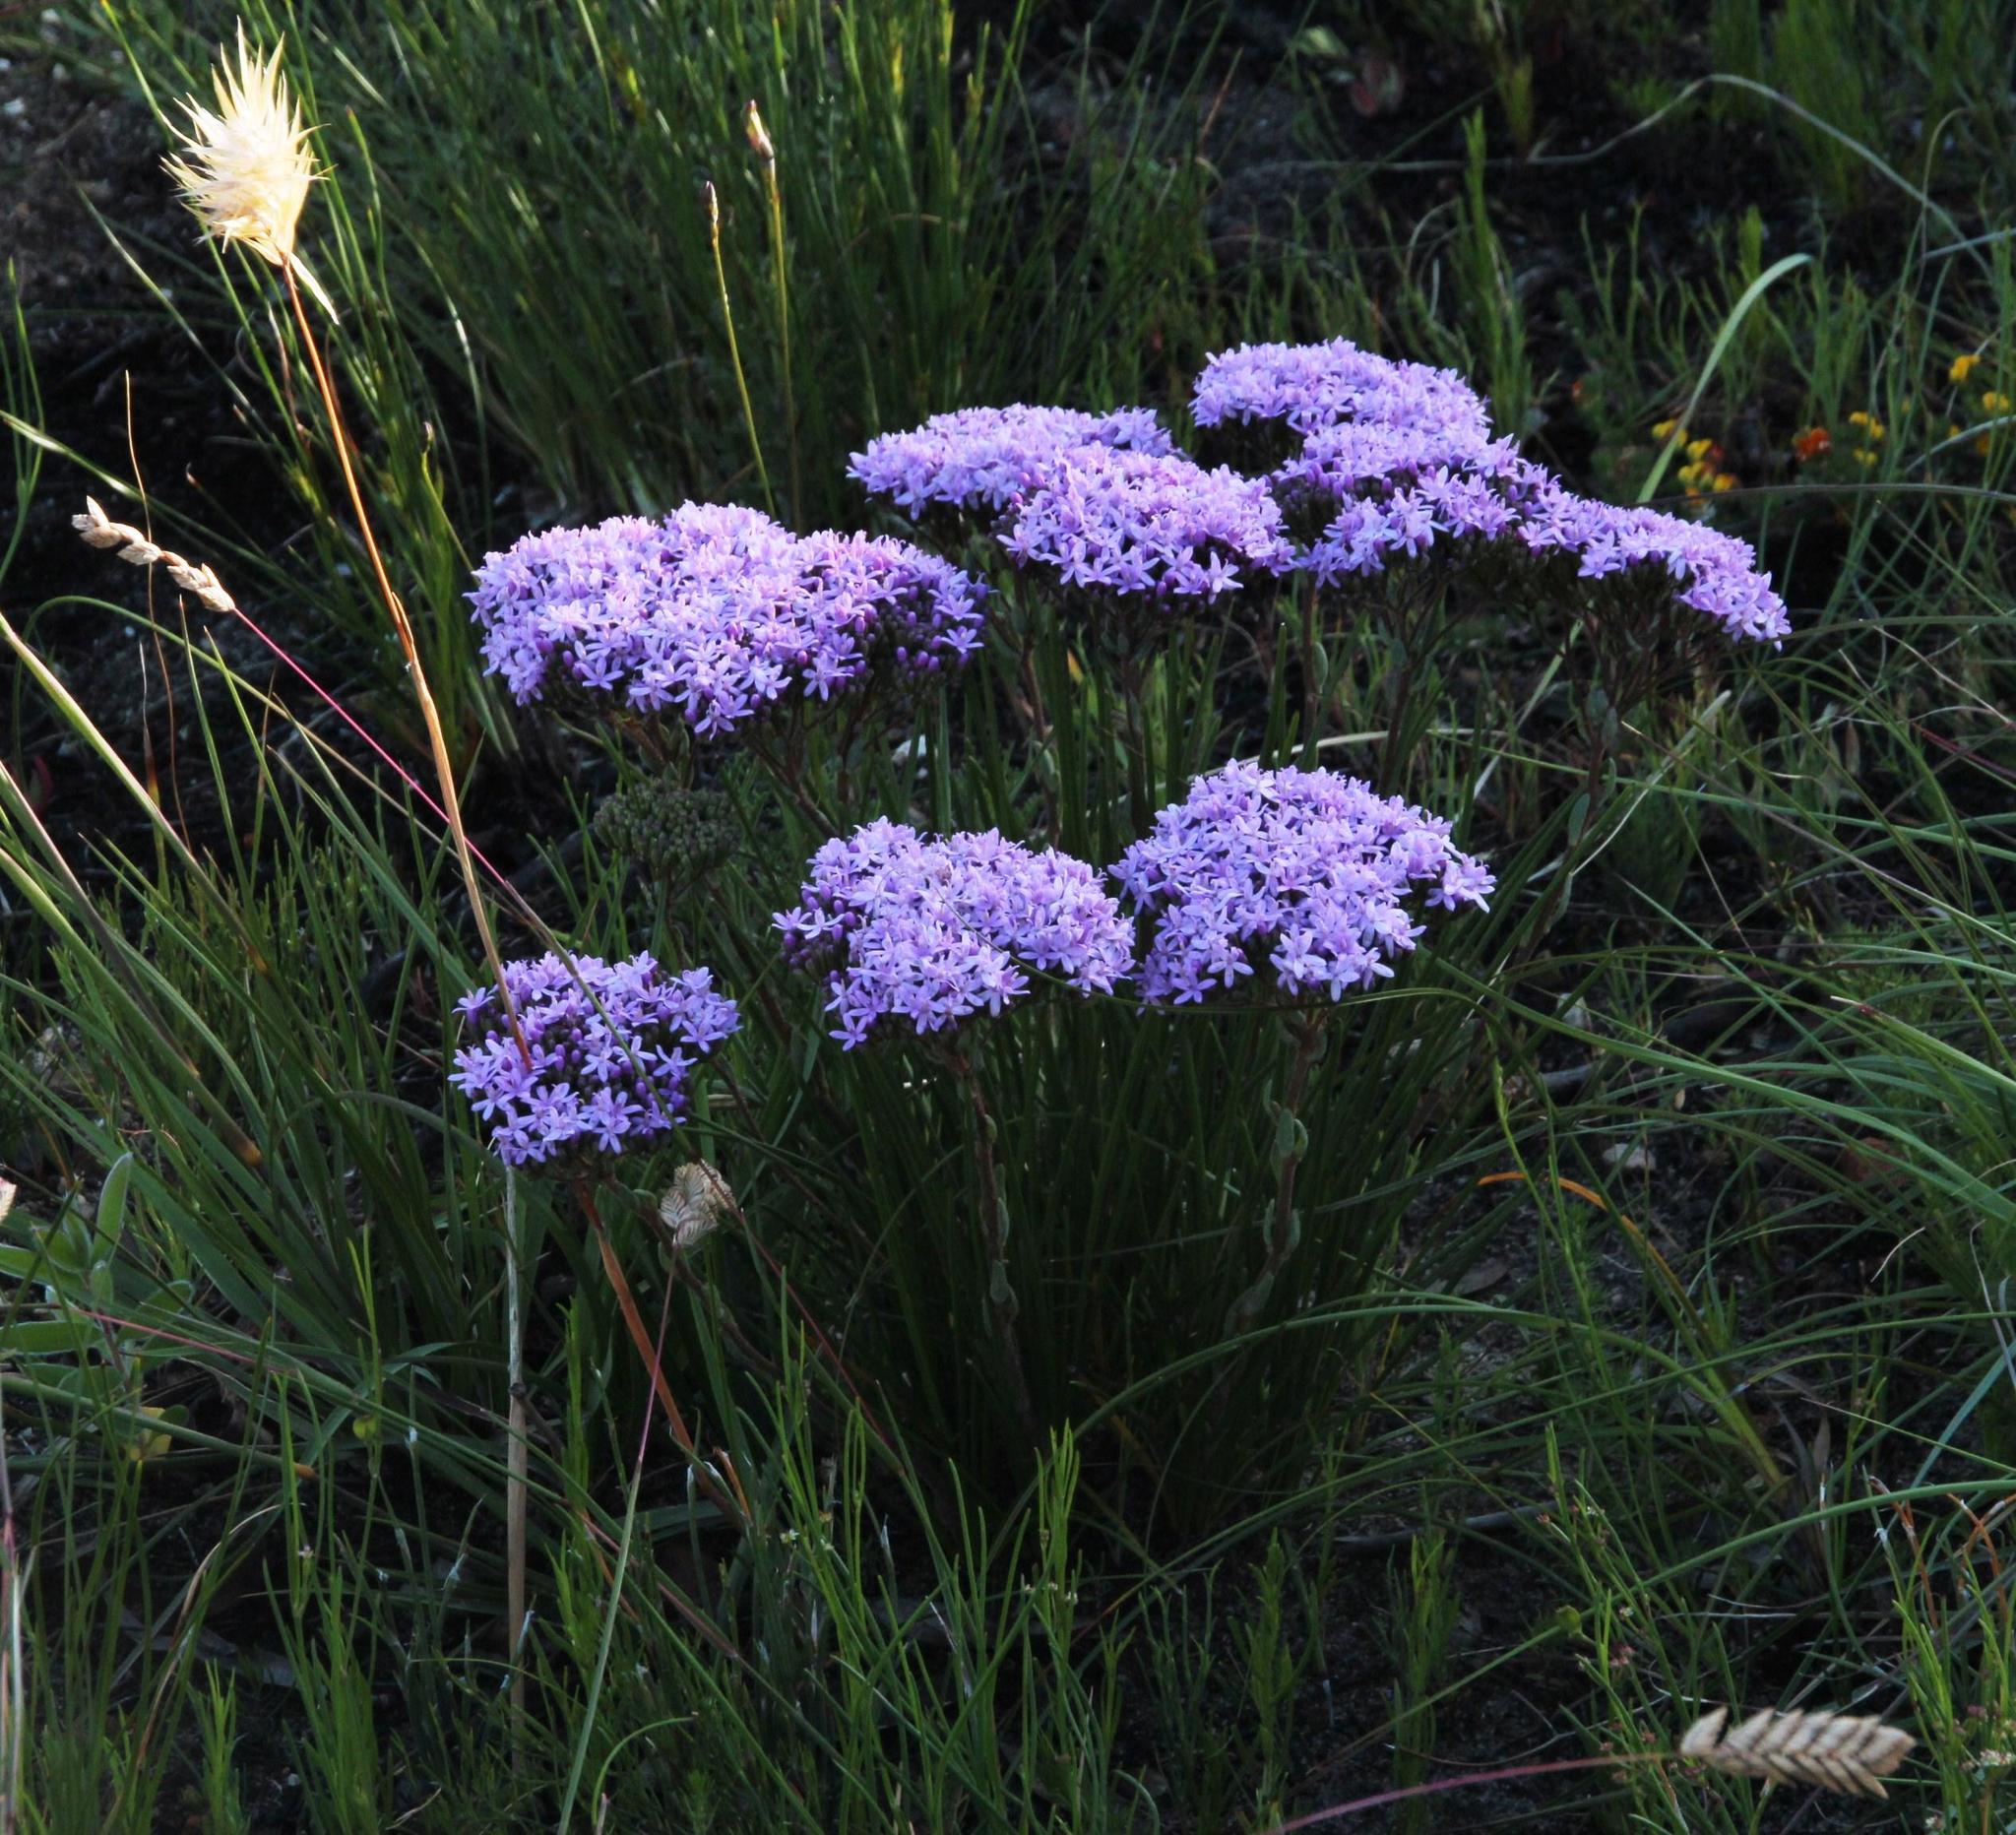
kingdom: Plantae
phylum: Tracheophyta
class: Magnoliopsida
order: Asterales
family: Asteraceae
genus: Corymbium
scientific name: Corymbium africanum
